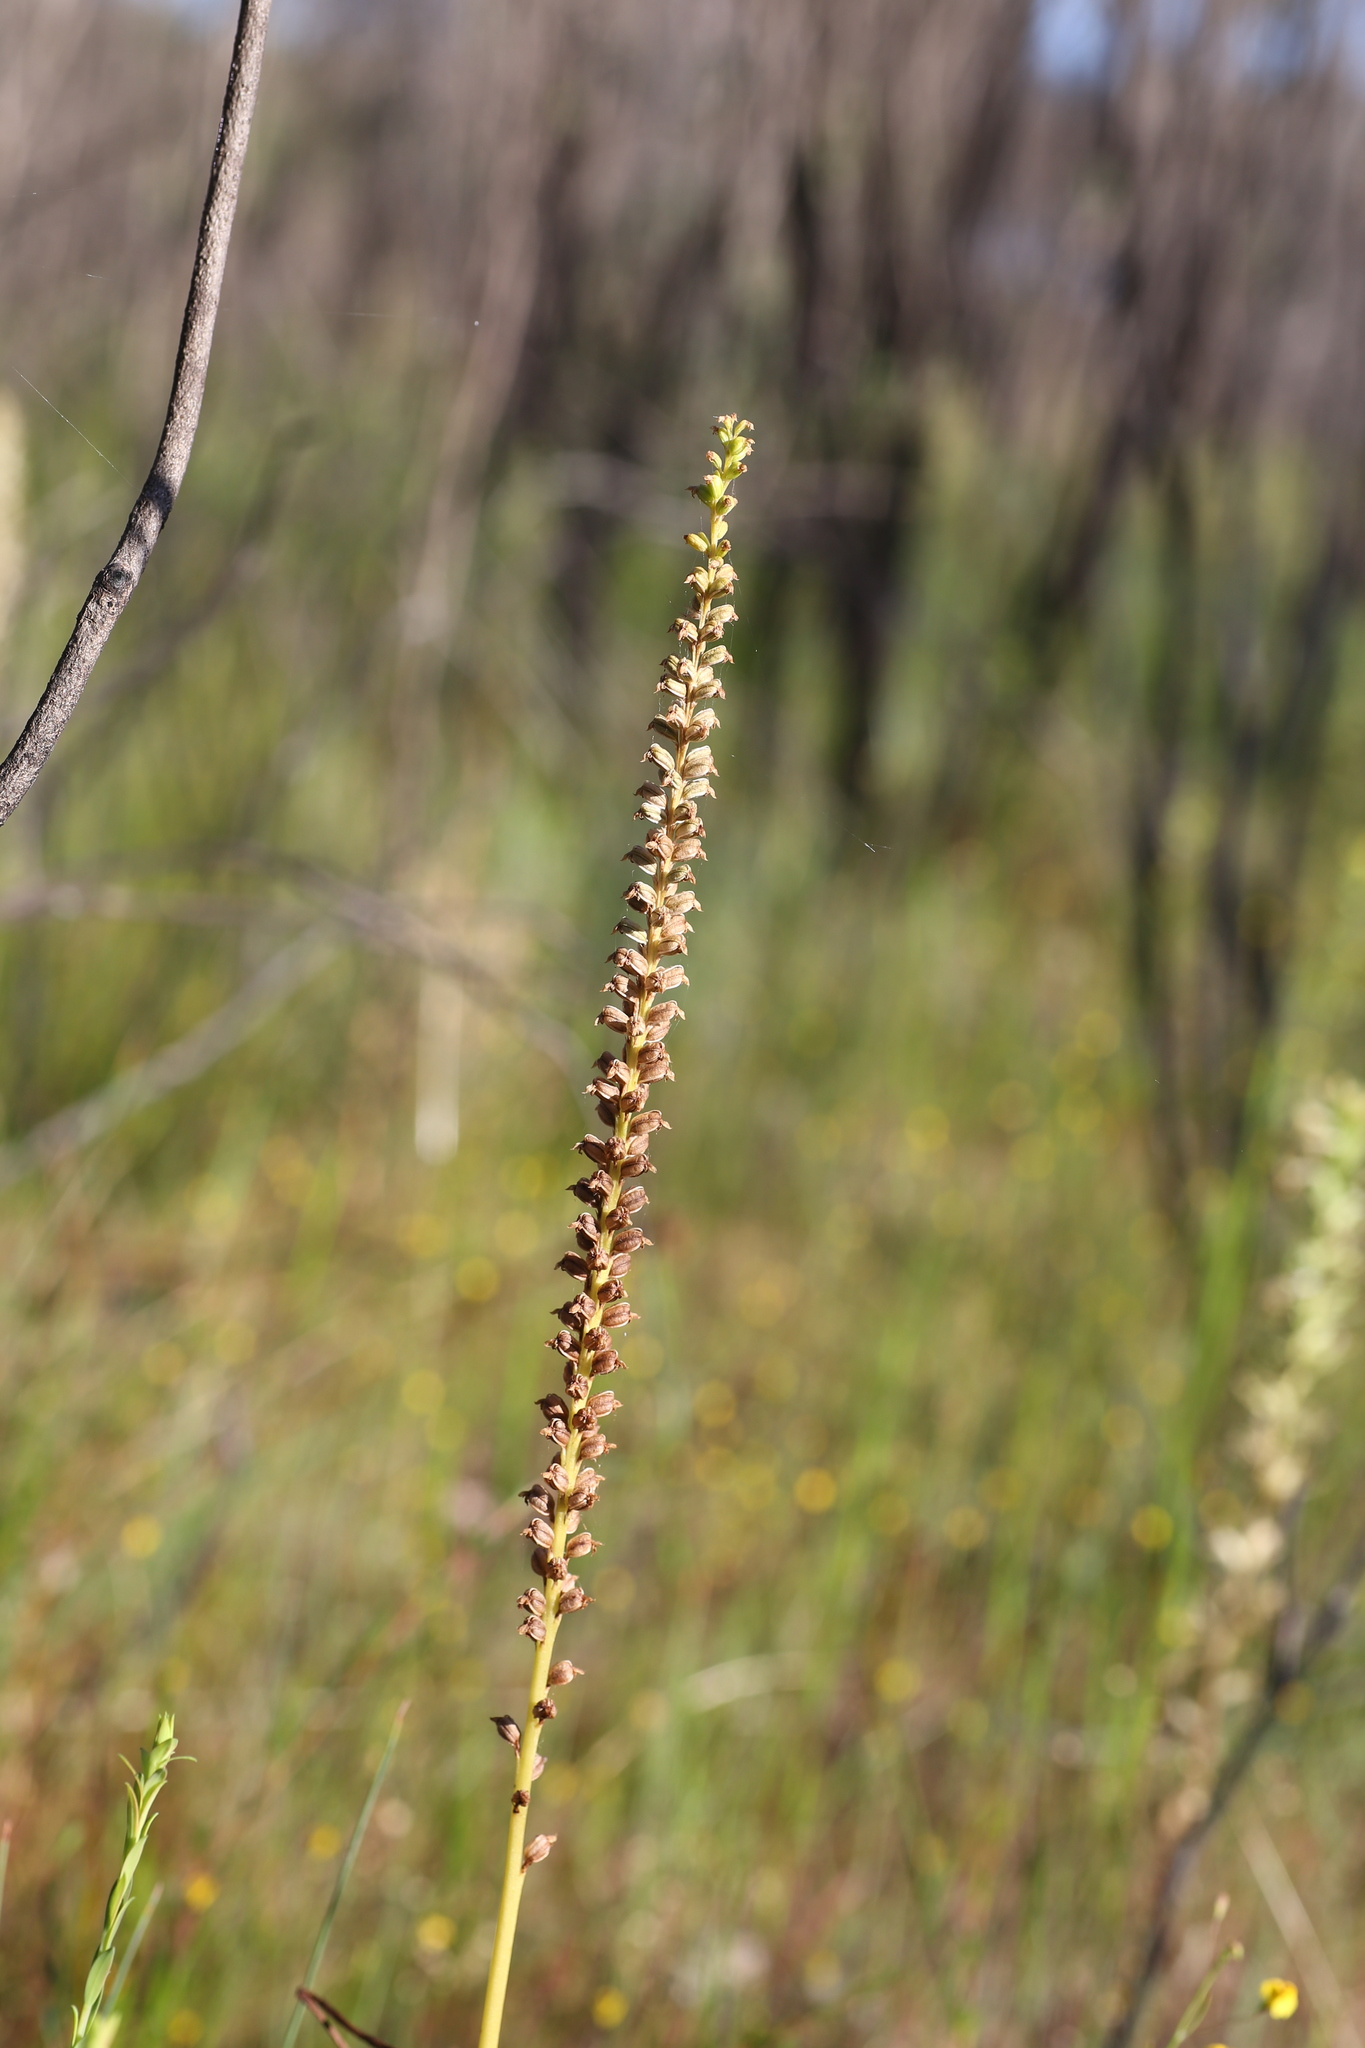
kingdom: Plantae
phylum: Tracheophyta
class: Liliopsida
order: Asparagales
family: Orchidaceae
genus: Microtis
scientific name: Microtis media
